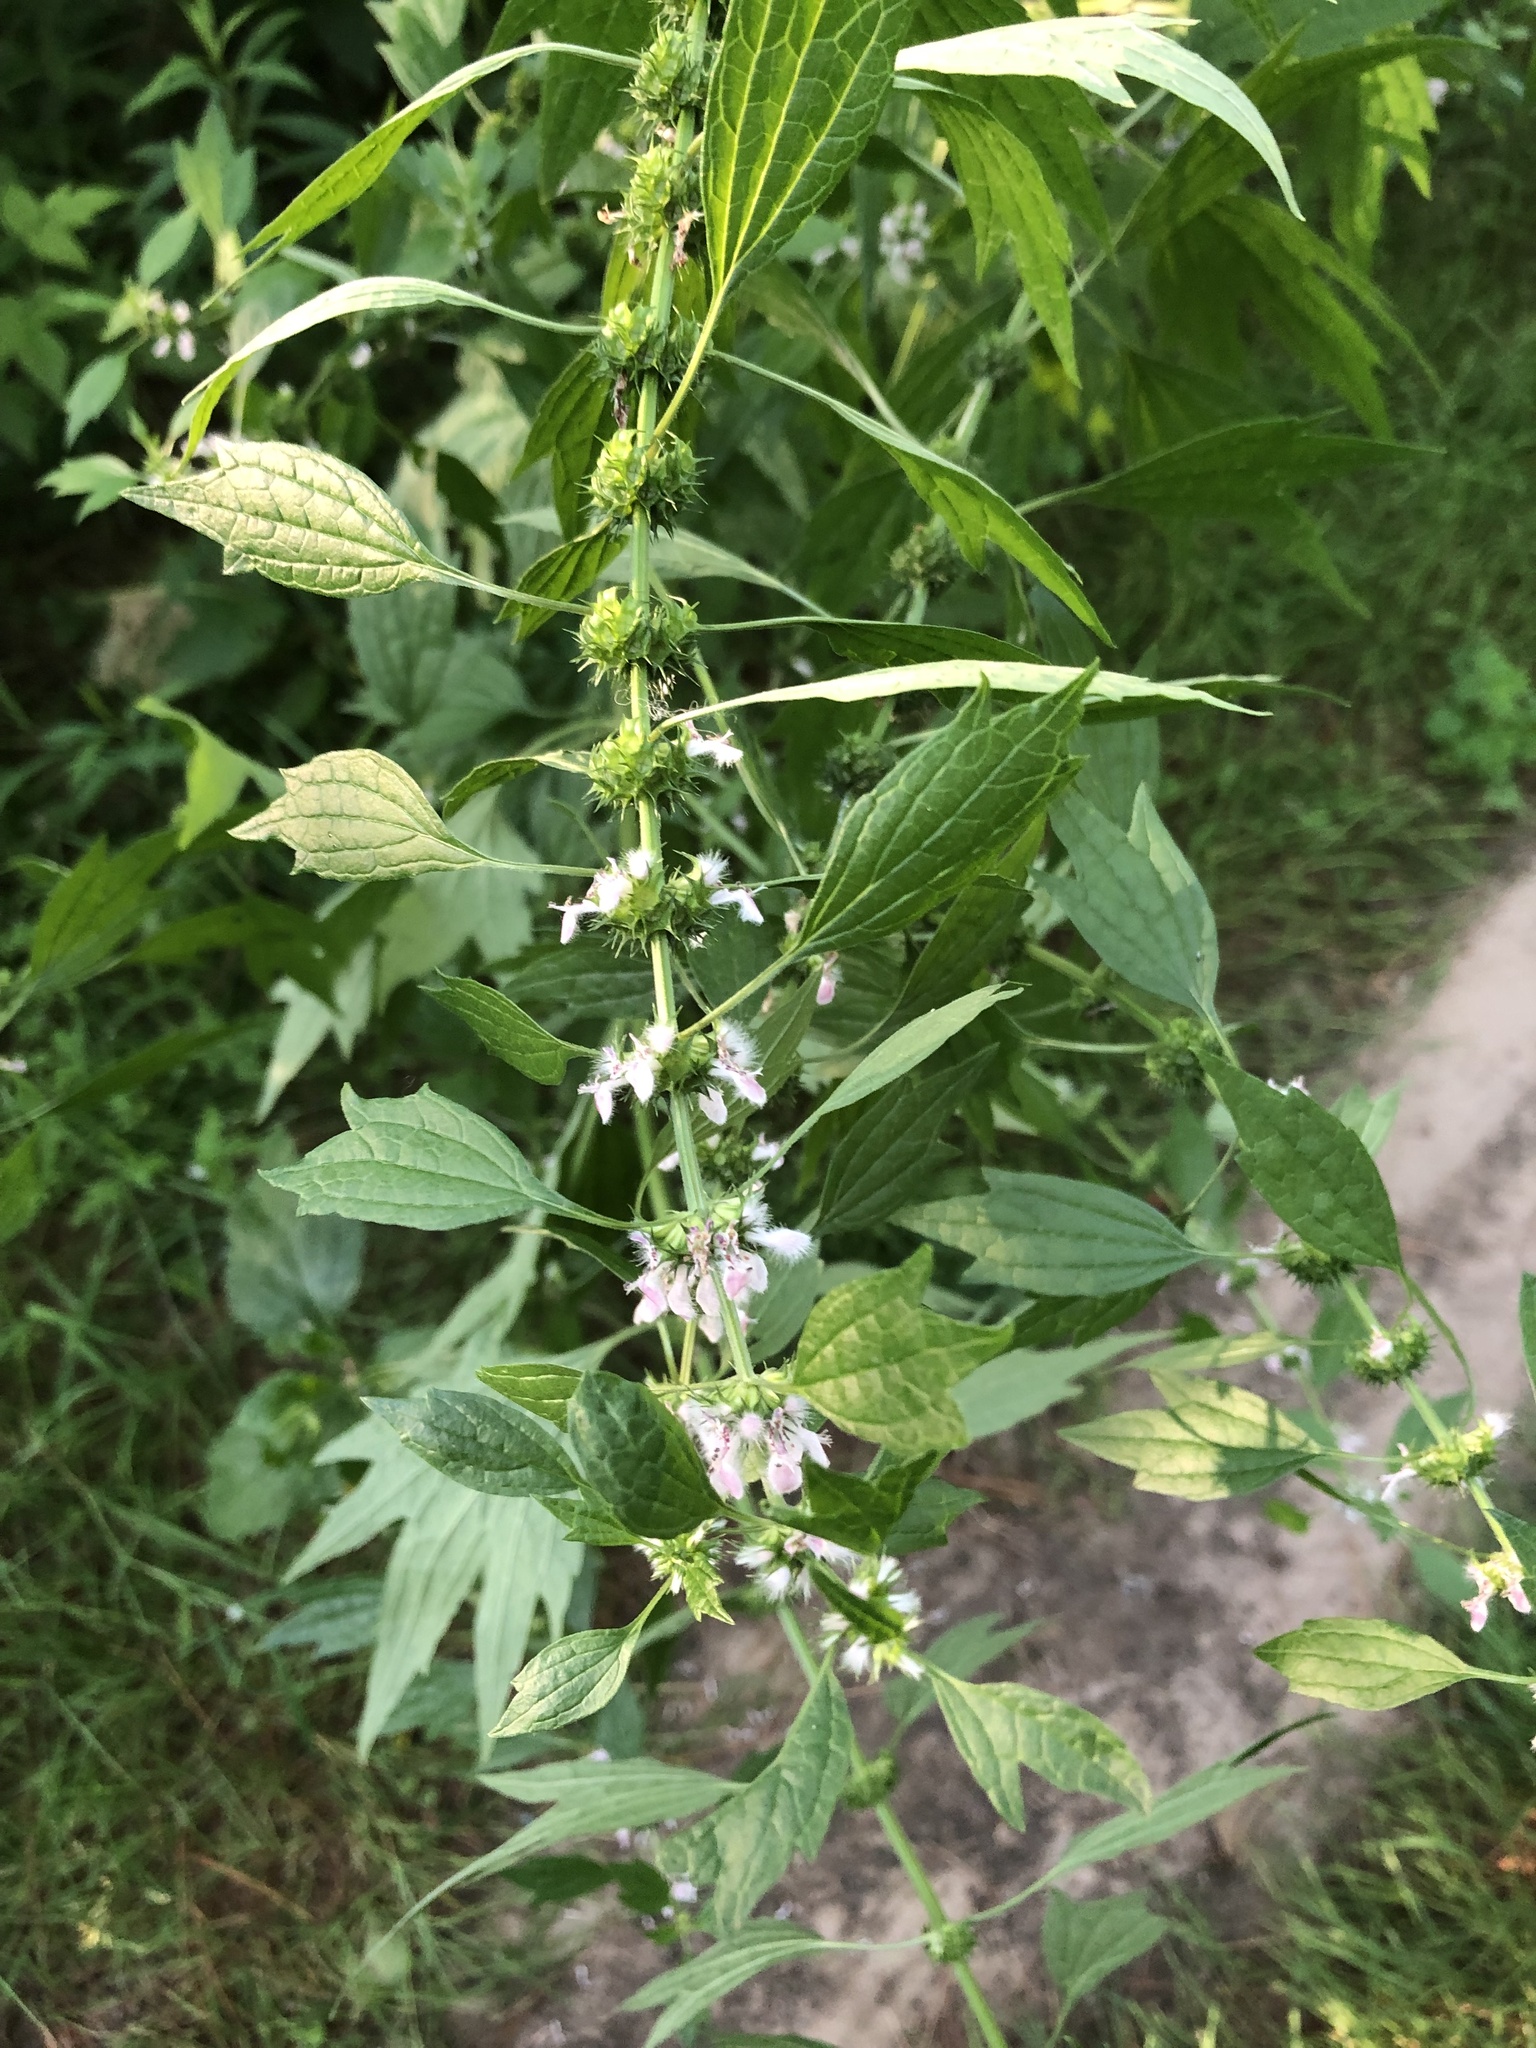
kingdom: Plantae
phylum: Tracheophyta
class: Magnoliopsida
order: Lamiales
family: Lamiaceae
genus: Leonurus
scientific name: Leonurus cardiaca
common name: Motherwort
